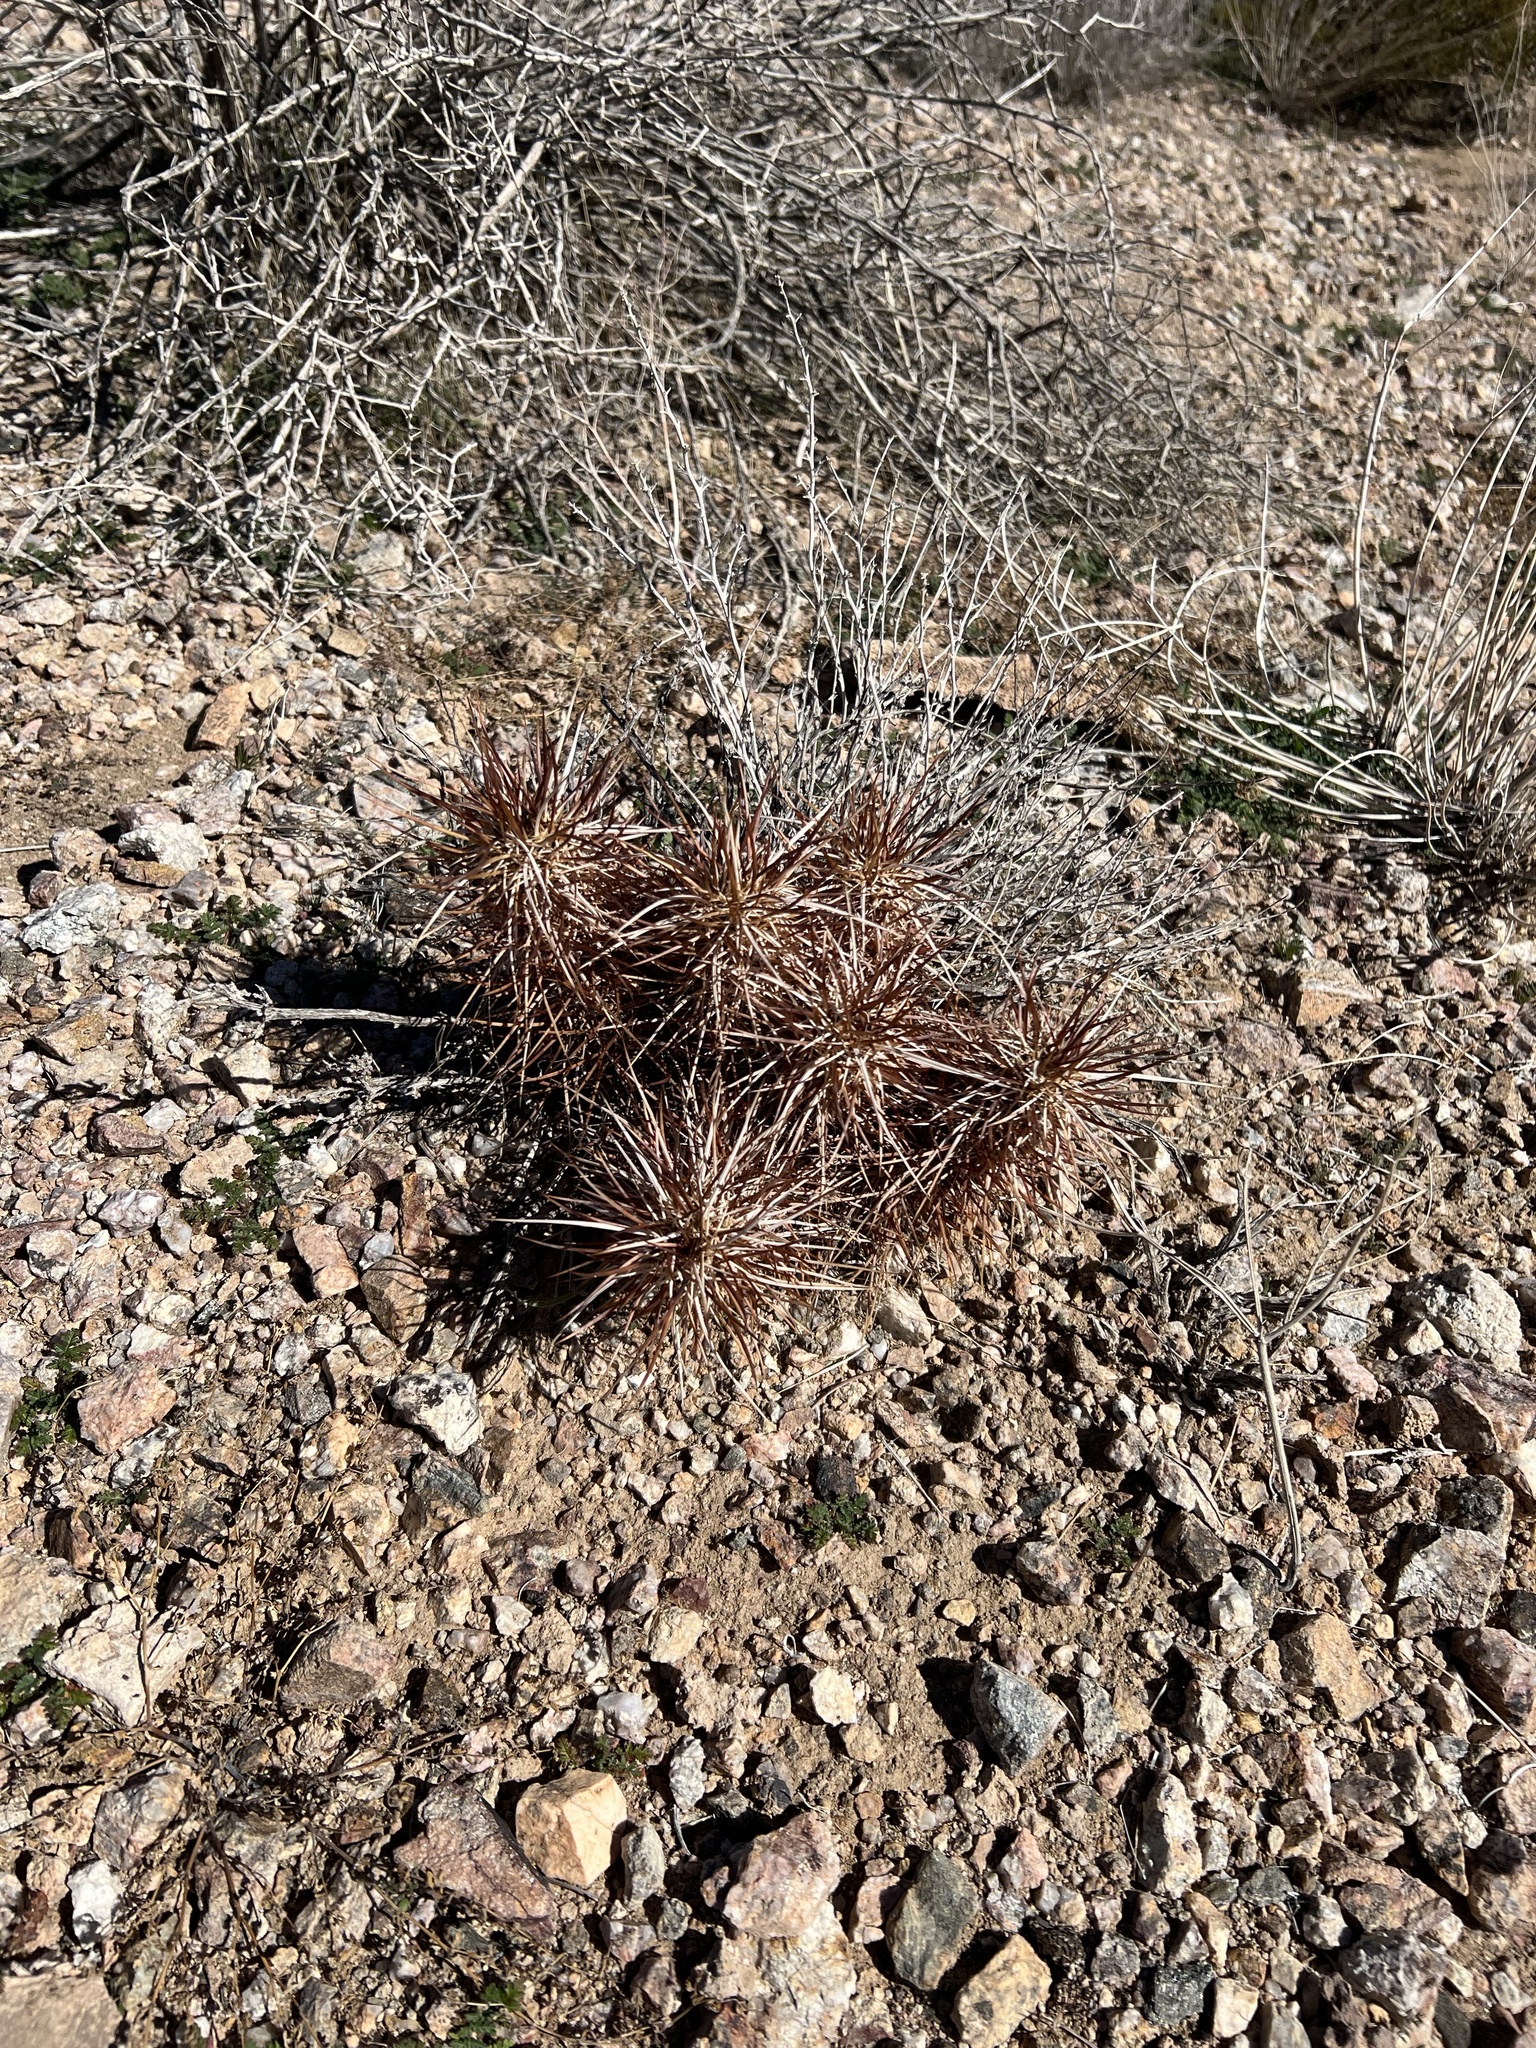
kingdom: Plantae
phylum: Tracheophyta
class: Magnoliopsida
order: Caryophyllales
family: Cactaceae
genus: Echinocereus
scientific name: Echinocereus engelmannii
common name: Engelmann's hedgehog cactus
